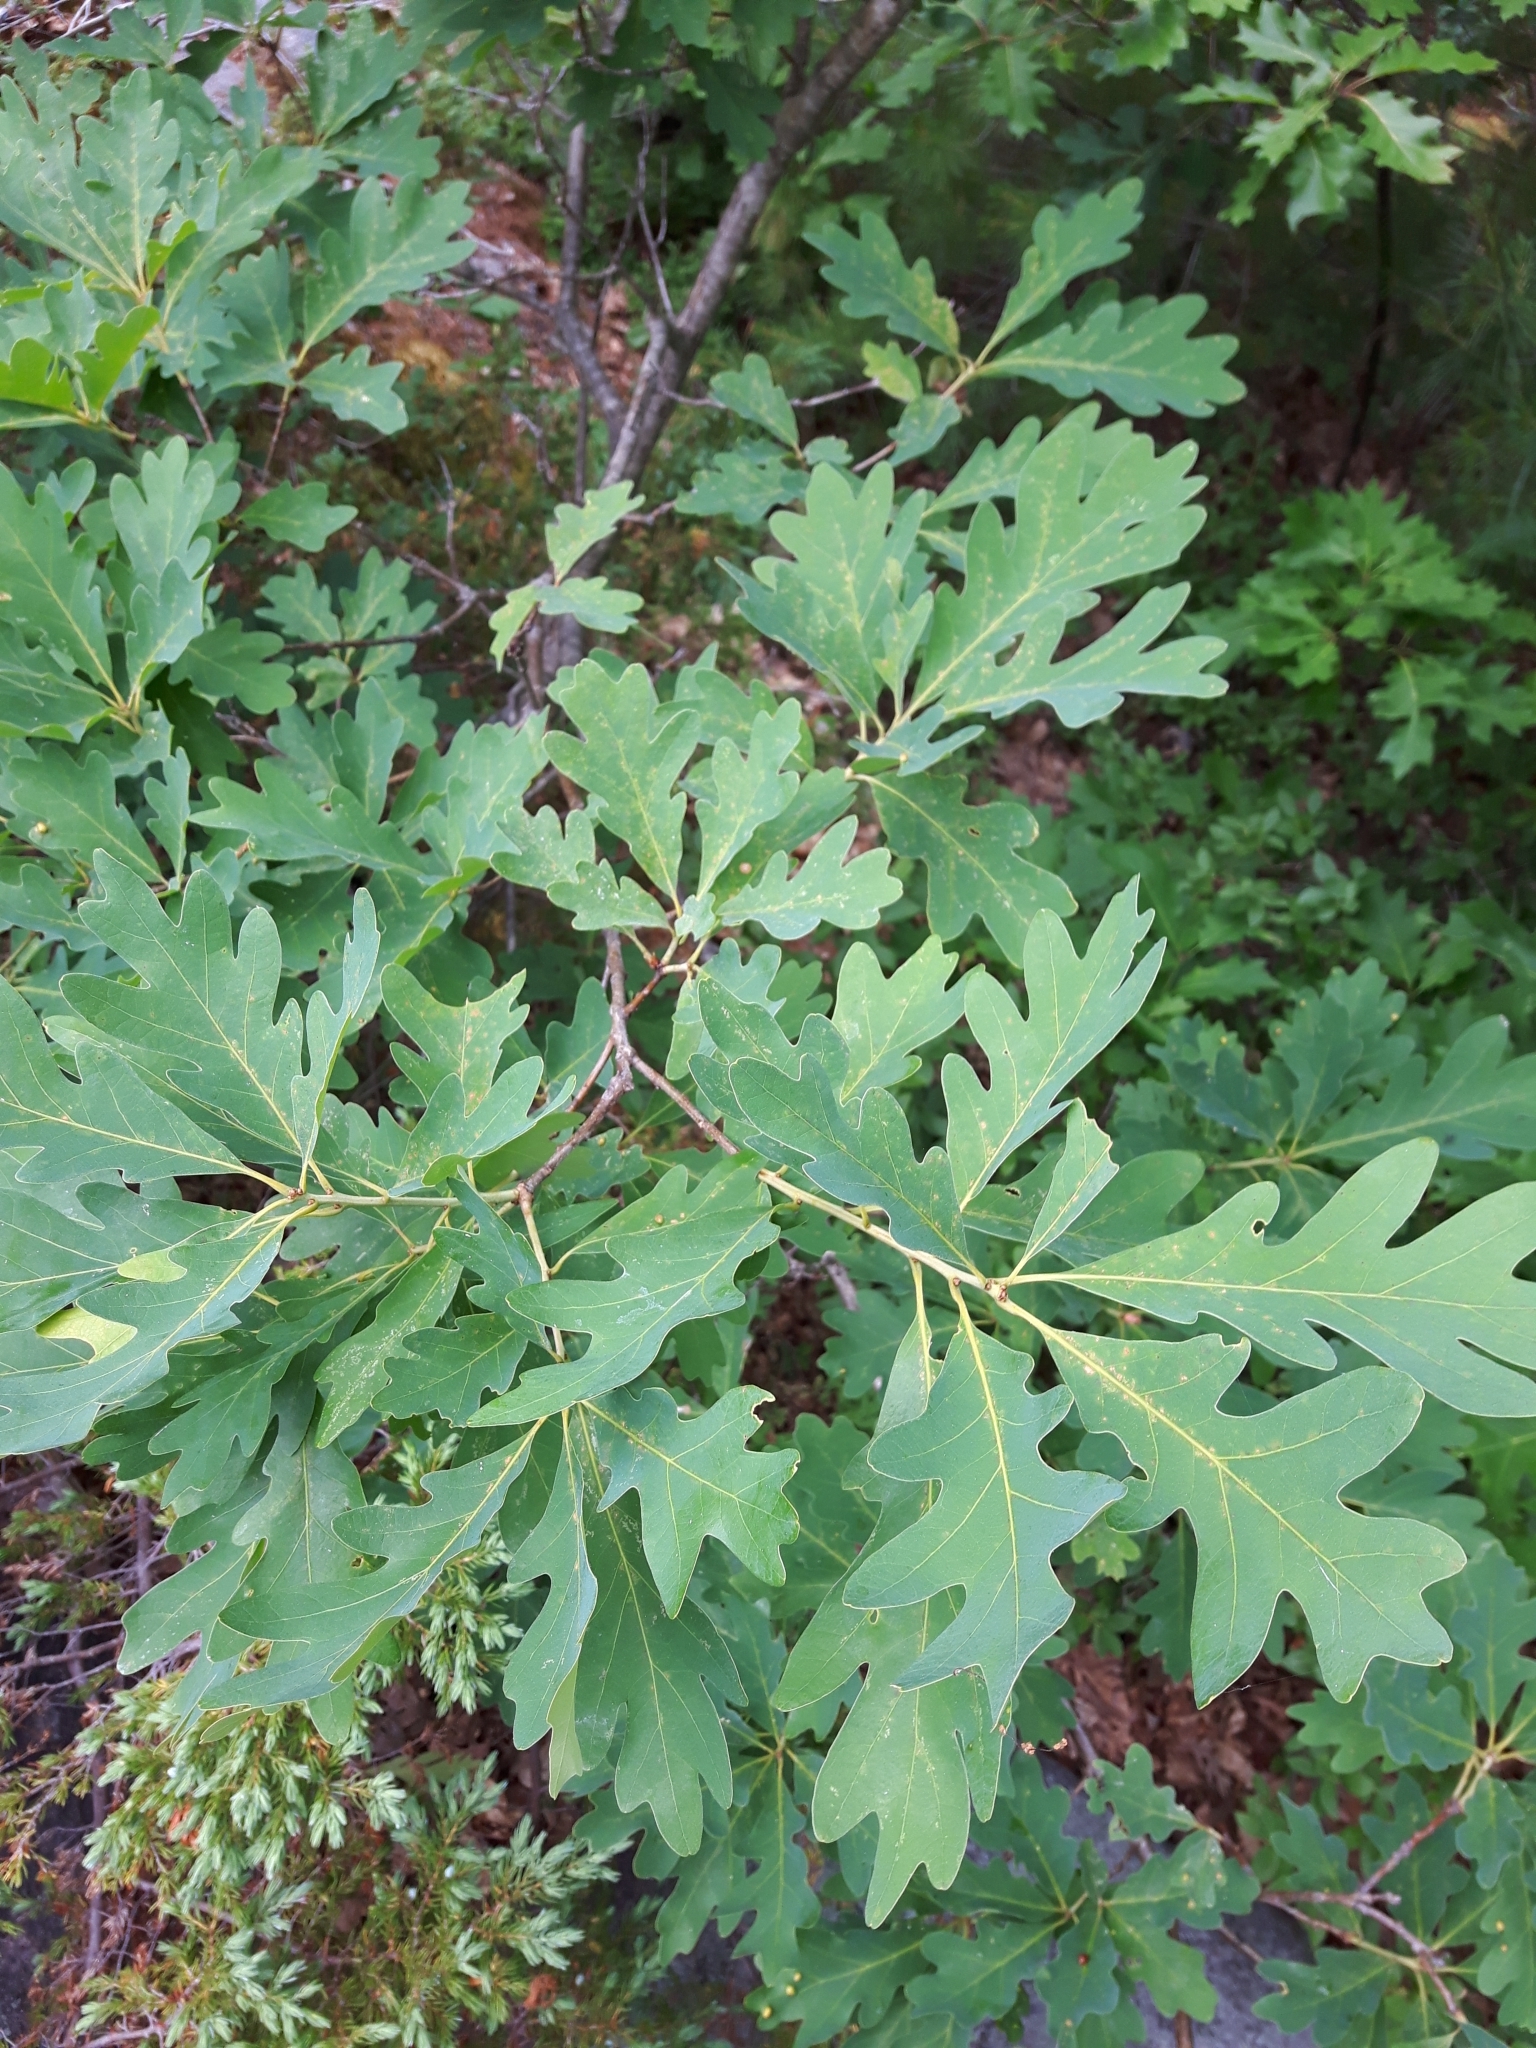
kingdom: Plantae
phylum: Tracheophyta
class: Magnoliopsida
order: Fagales
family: Fagaceae
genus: Quercus
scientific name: Quercus alba
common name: White oak
